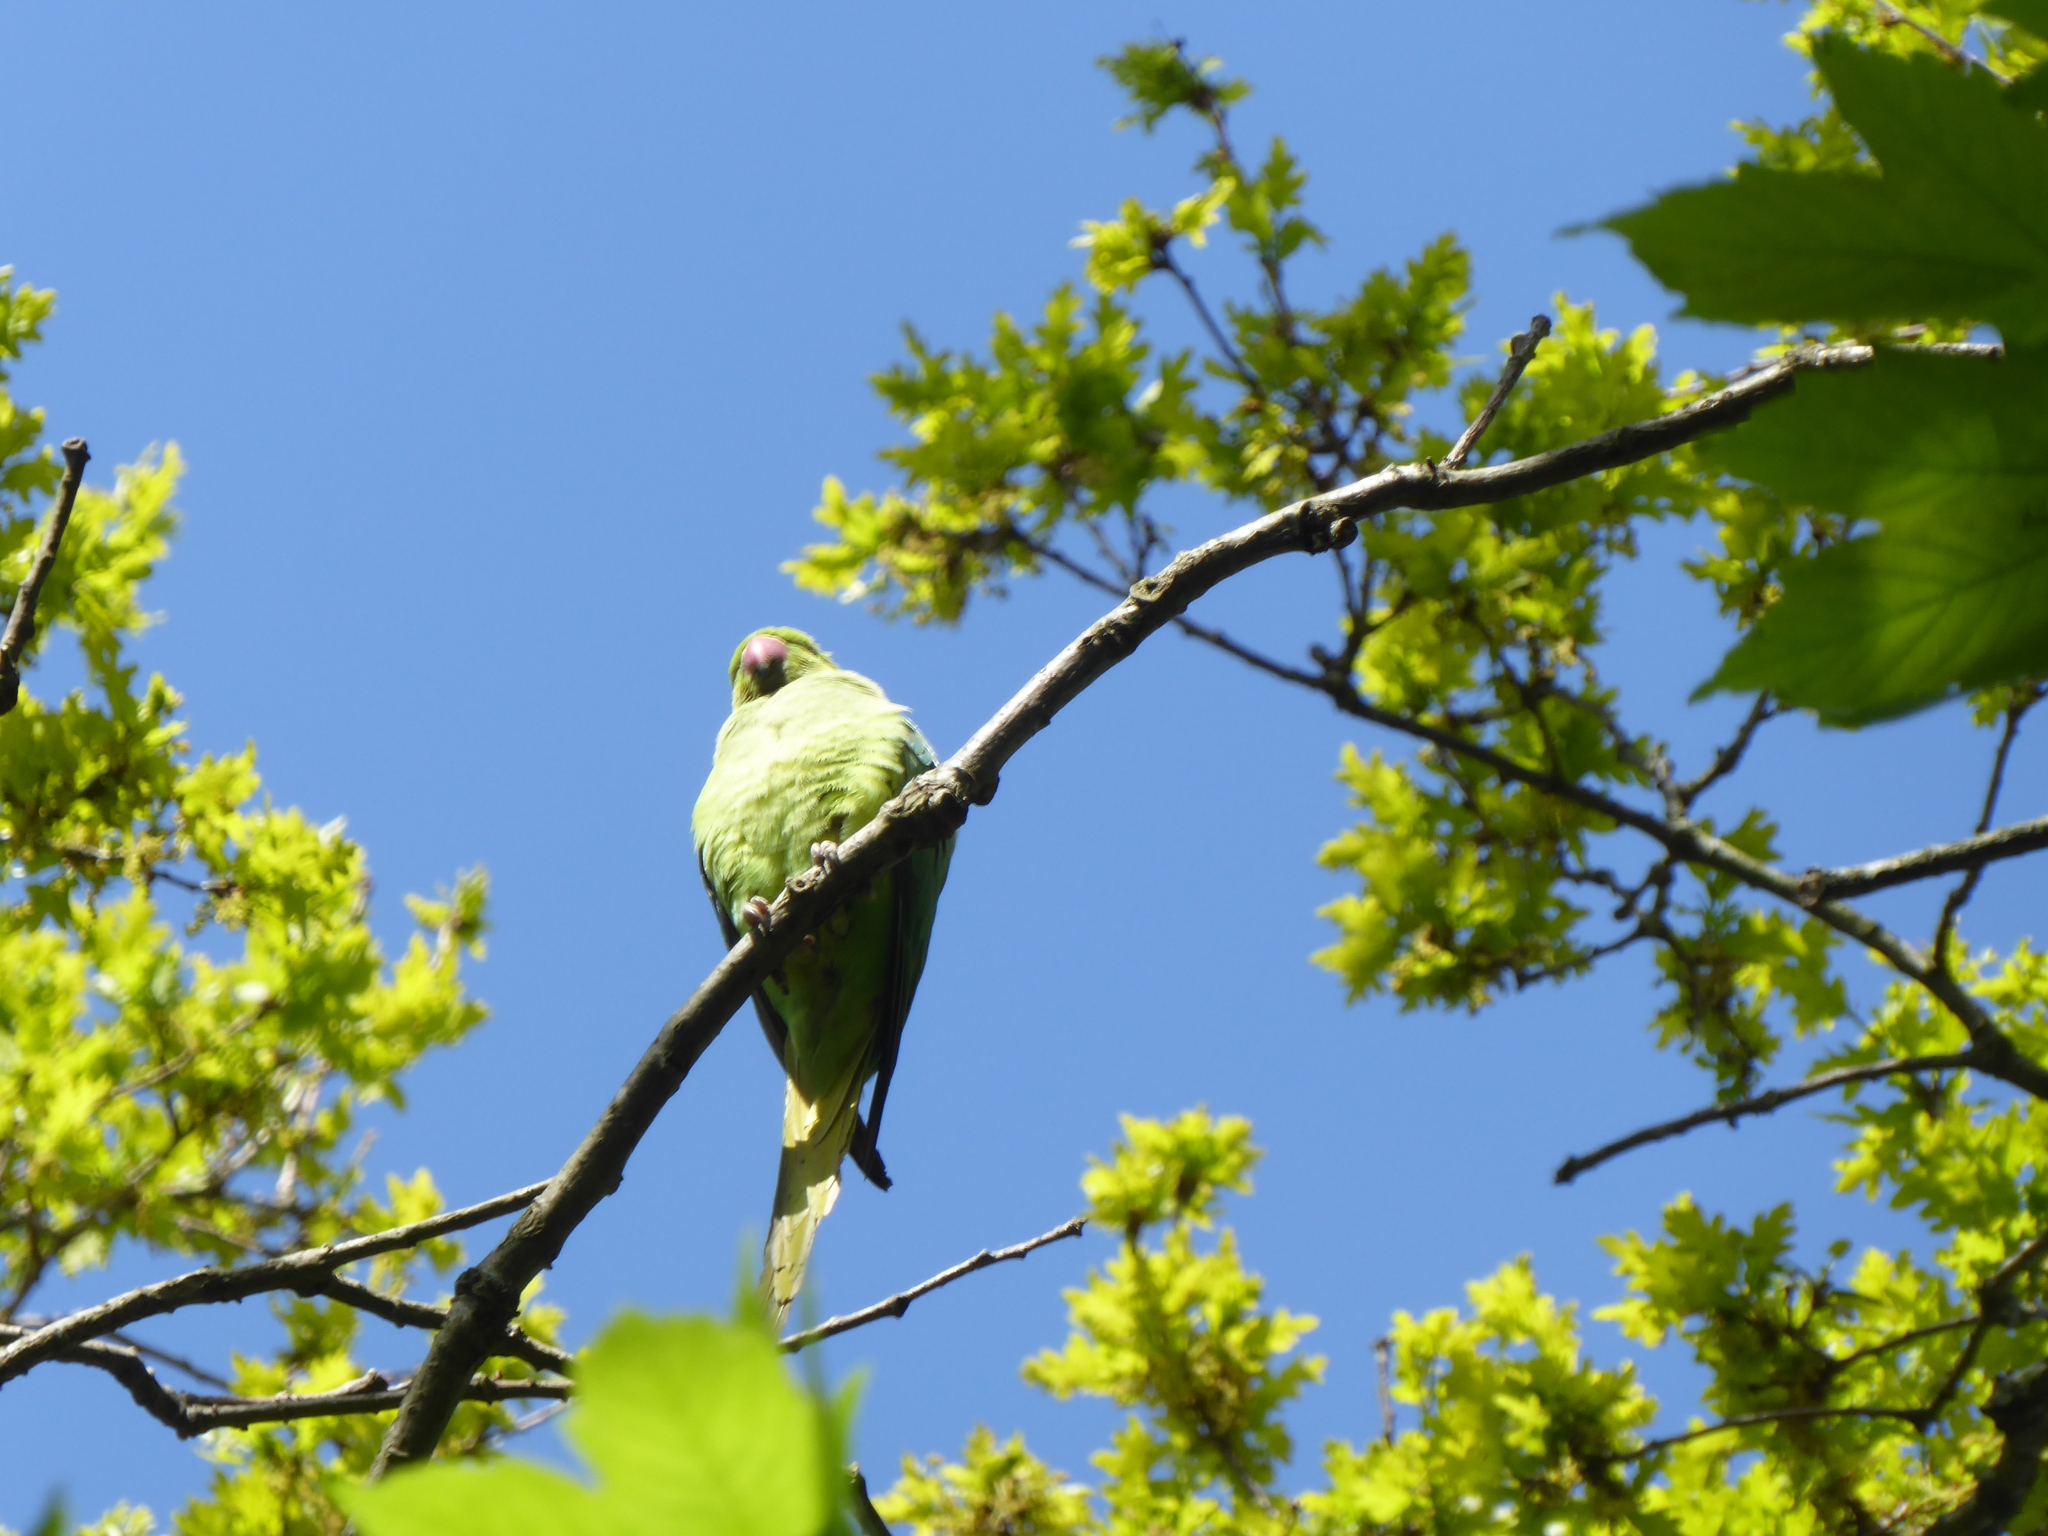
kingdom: Animalia
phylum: Chordata
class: Aves
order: Psittaciformes
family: Psittacidae
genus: Psittacula
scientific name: Psittacula krameri
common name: Rose-ringed parakeet
